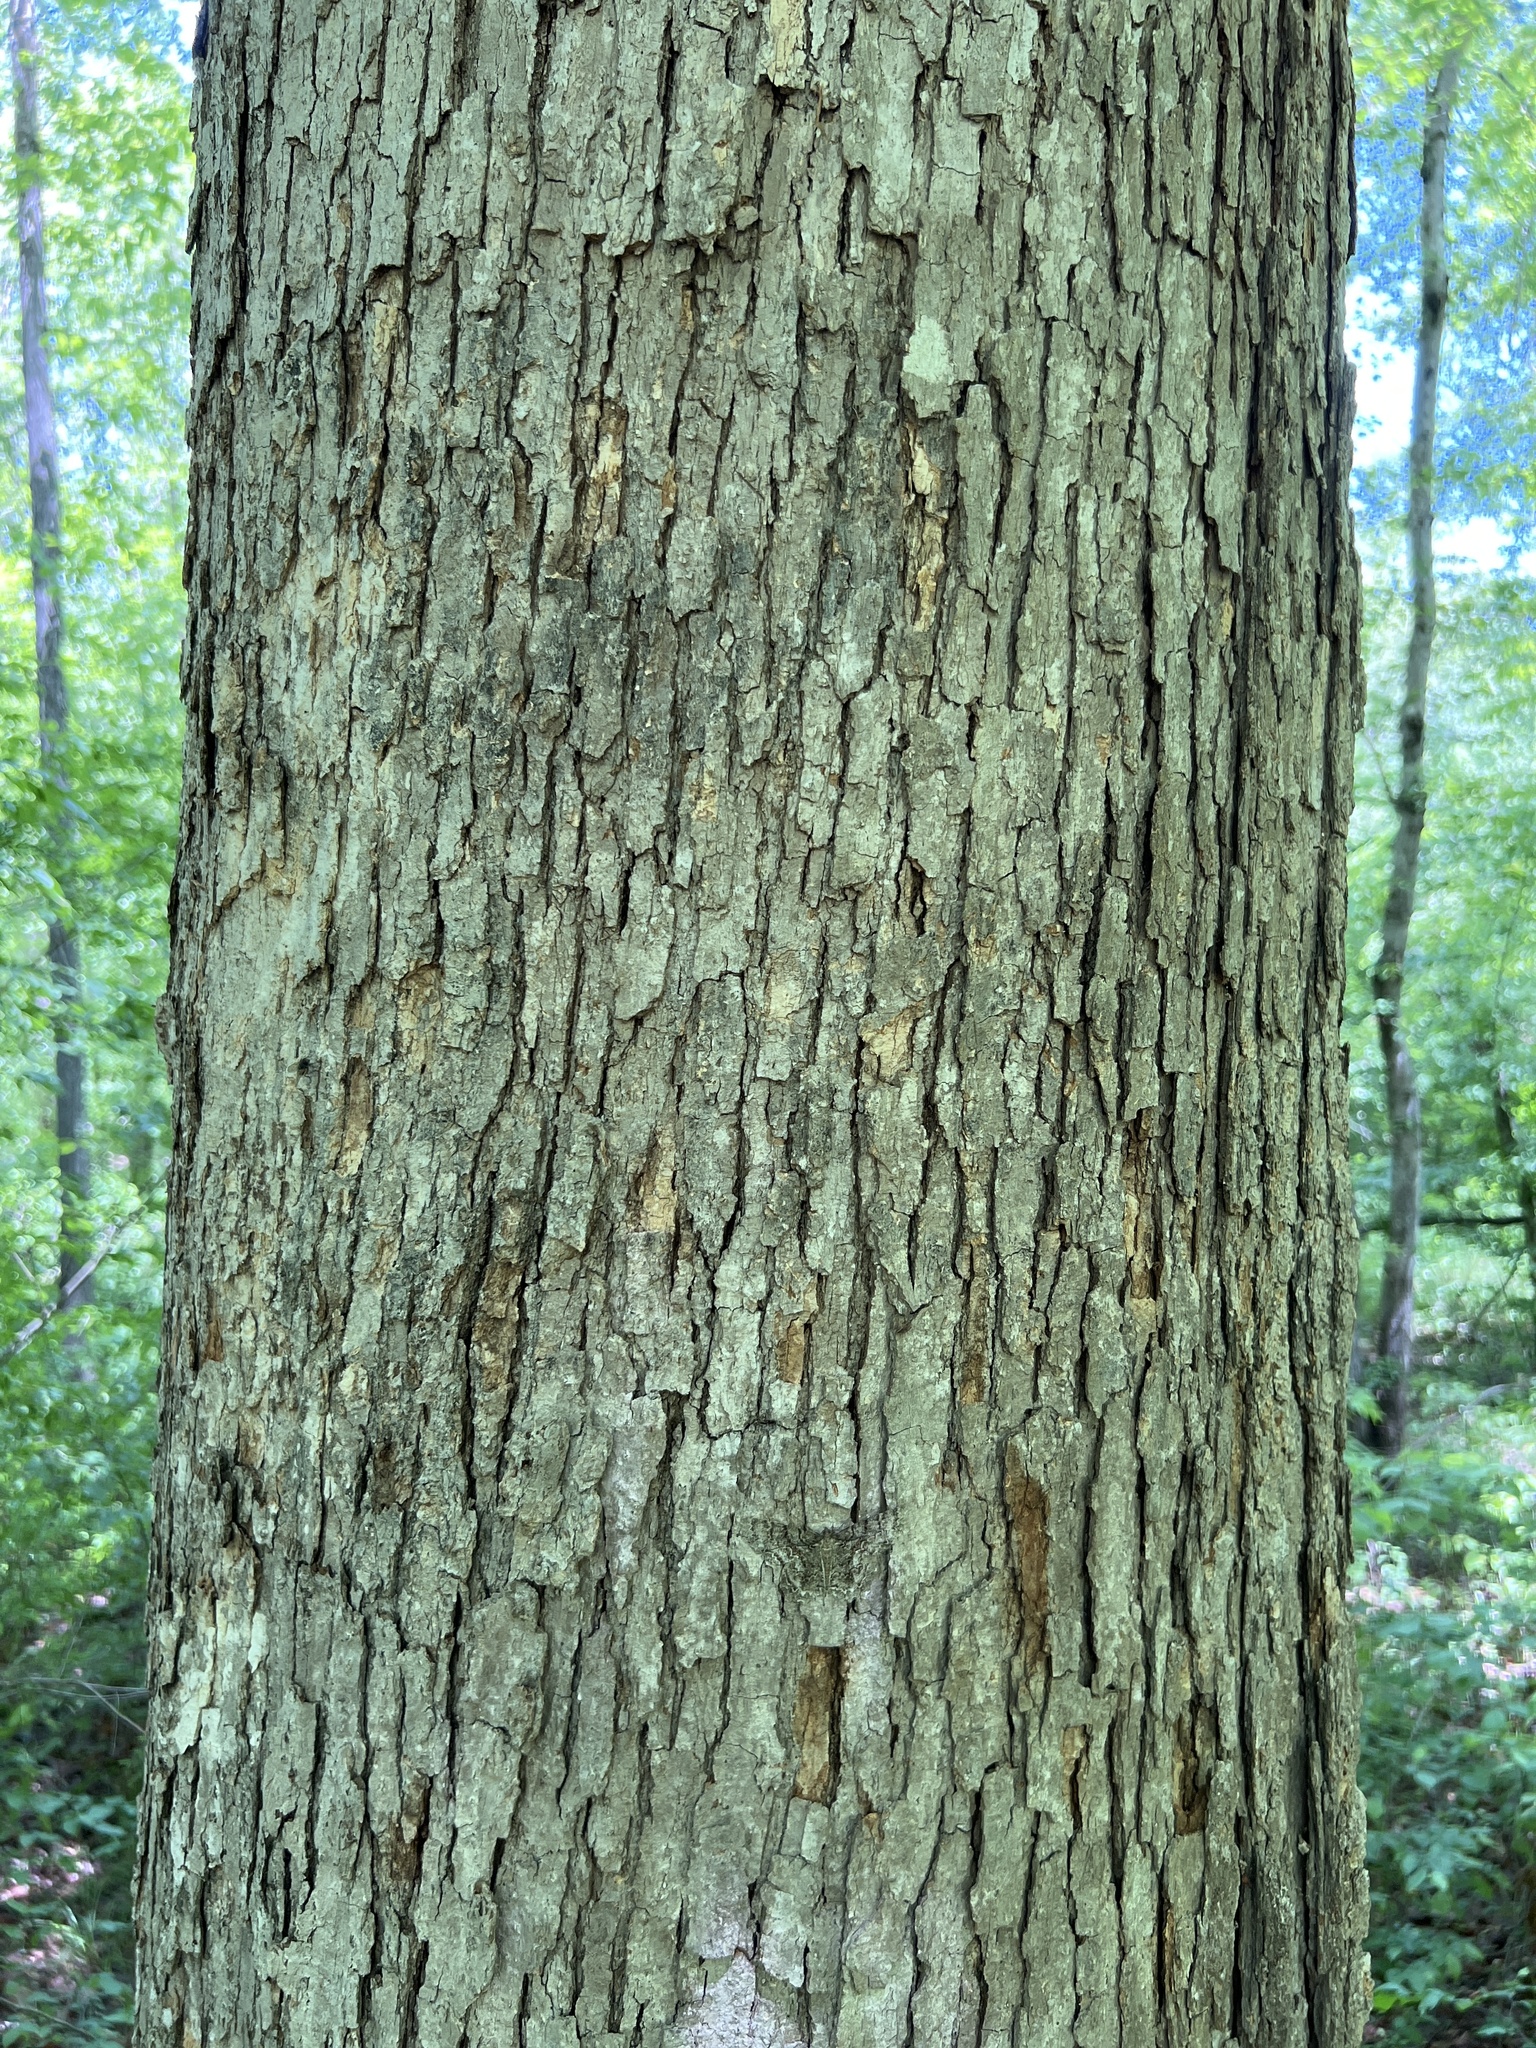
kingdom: Plantae
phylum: Tracheophyta
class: Magnoliopsida
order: Fagales
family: Fagaceae
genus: Quercus
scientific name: Quercus michauxii
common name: Swamp chestnut oak
